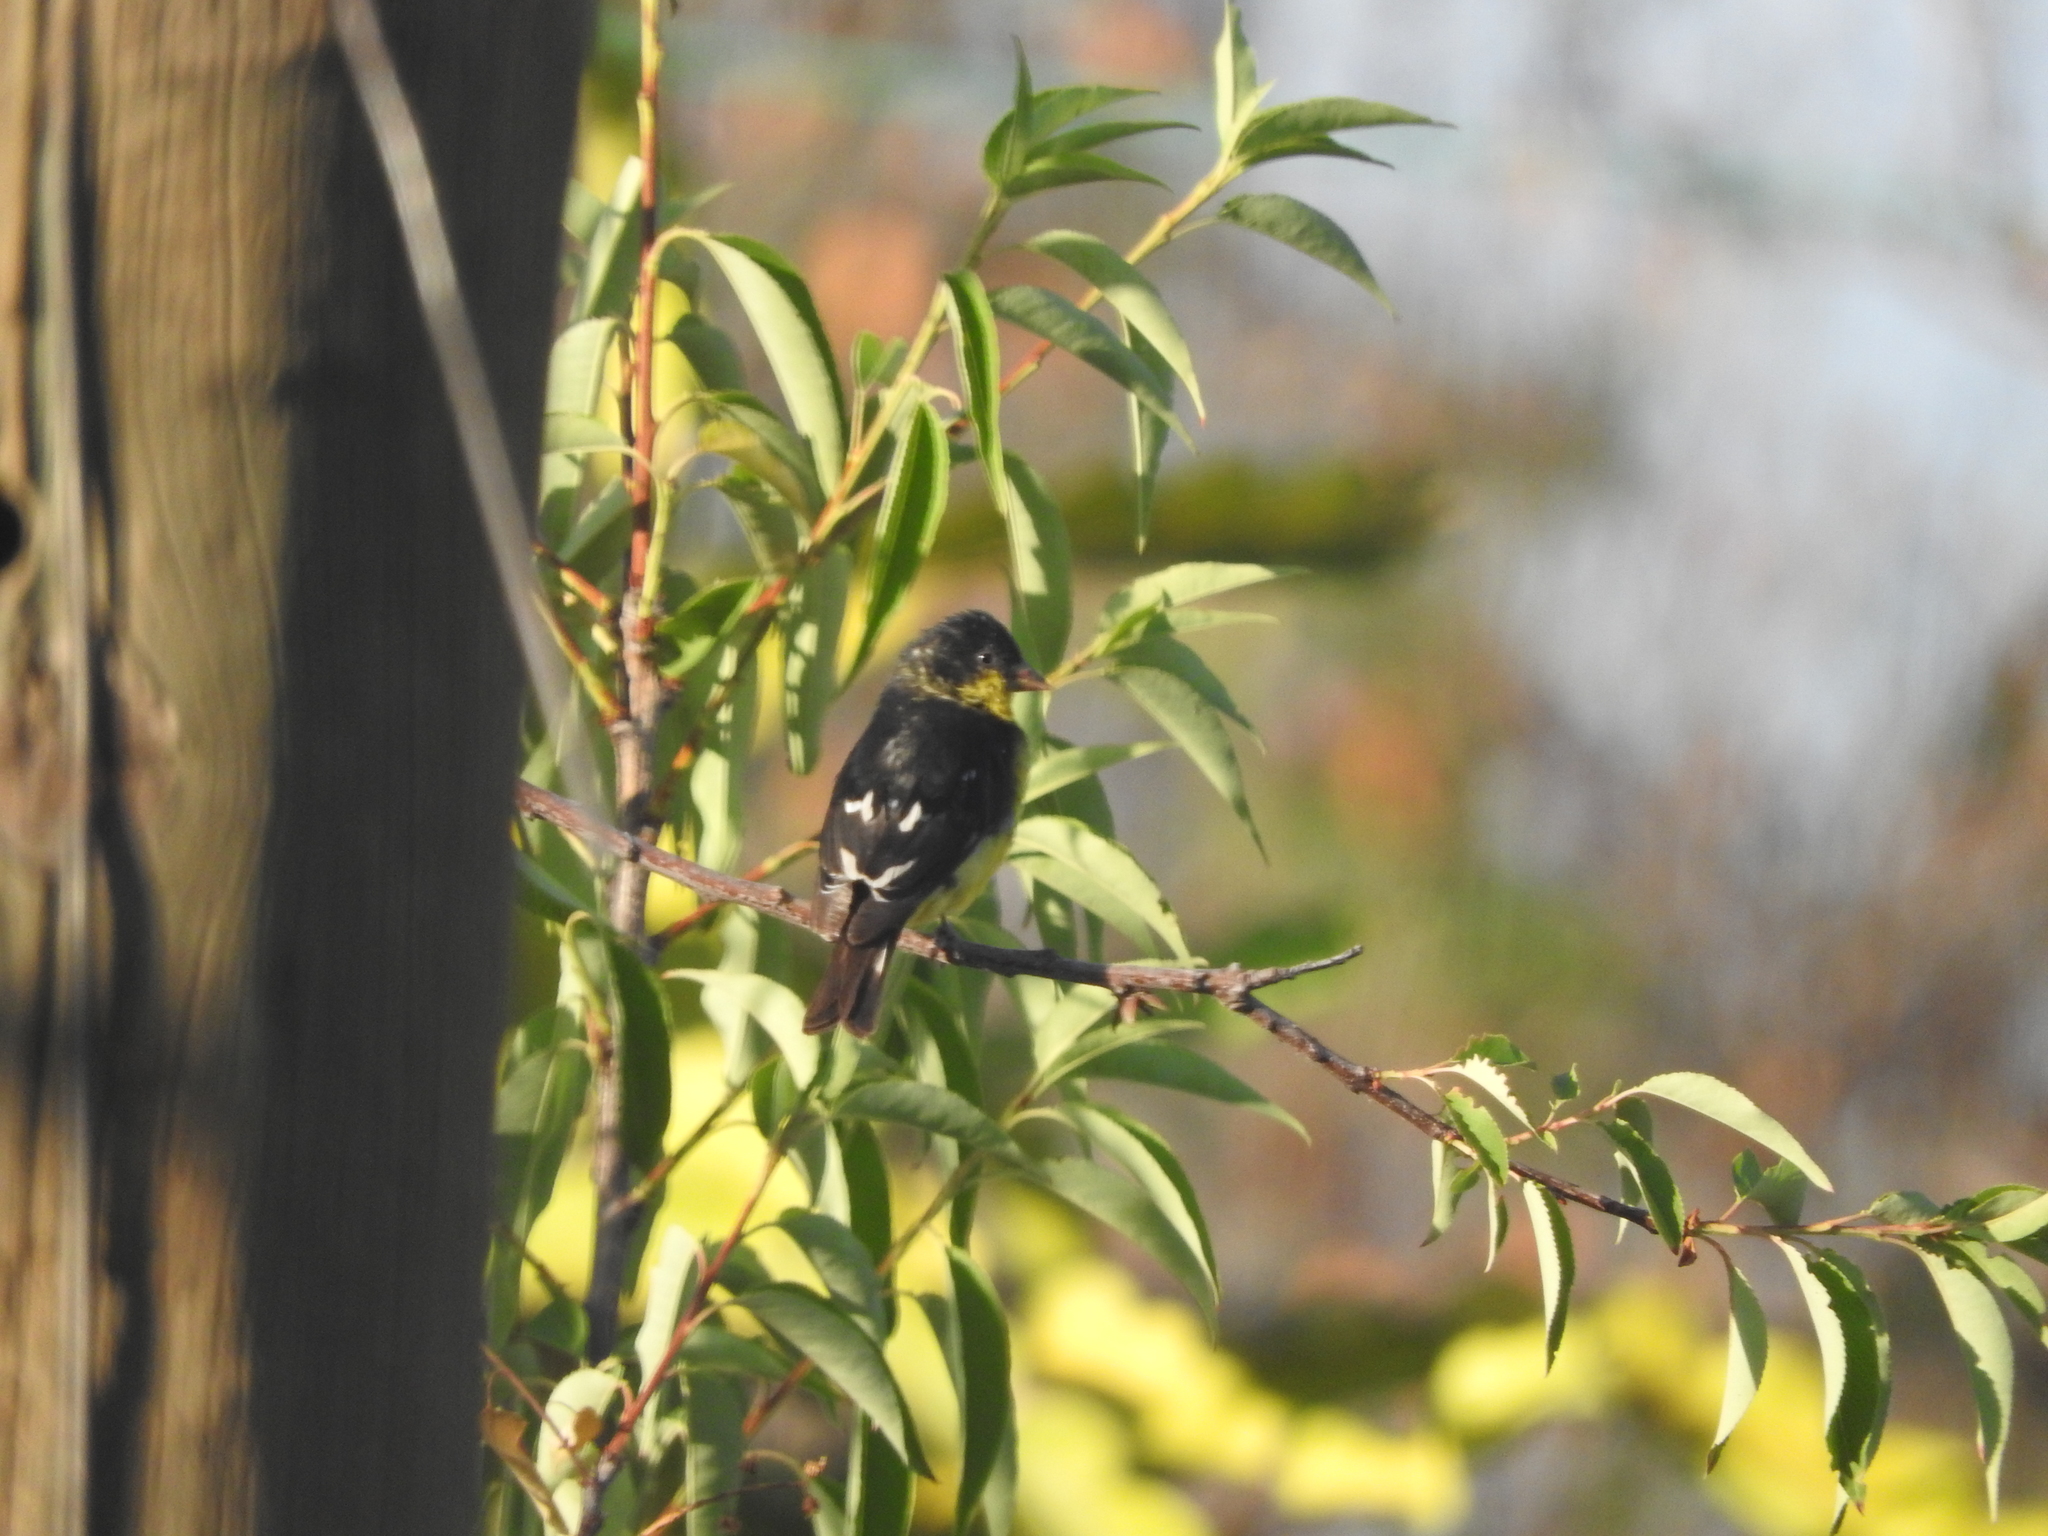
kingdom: Animalia
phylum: Chordata
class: Aves
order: Passeriformes
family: Fringillidae
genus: Spinus
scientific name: Spinus psaltria
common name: Lesser goldfinch
